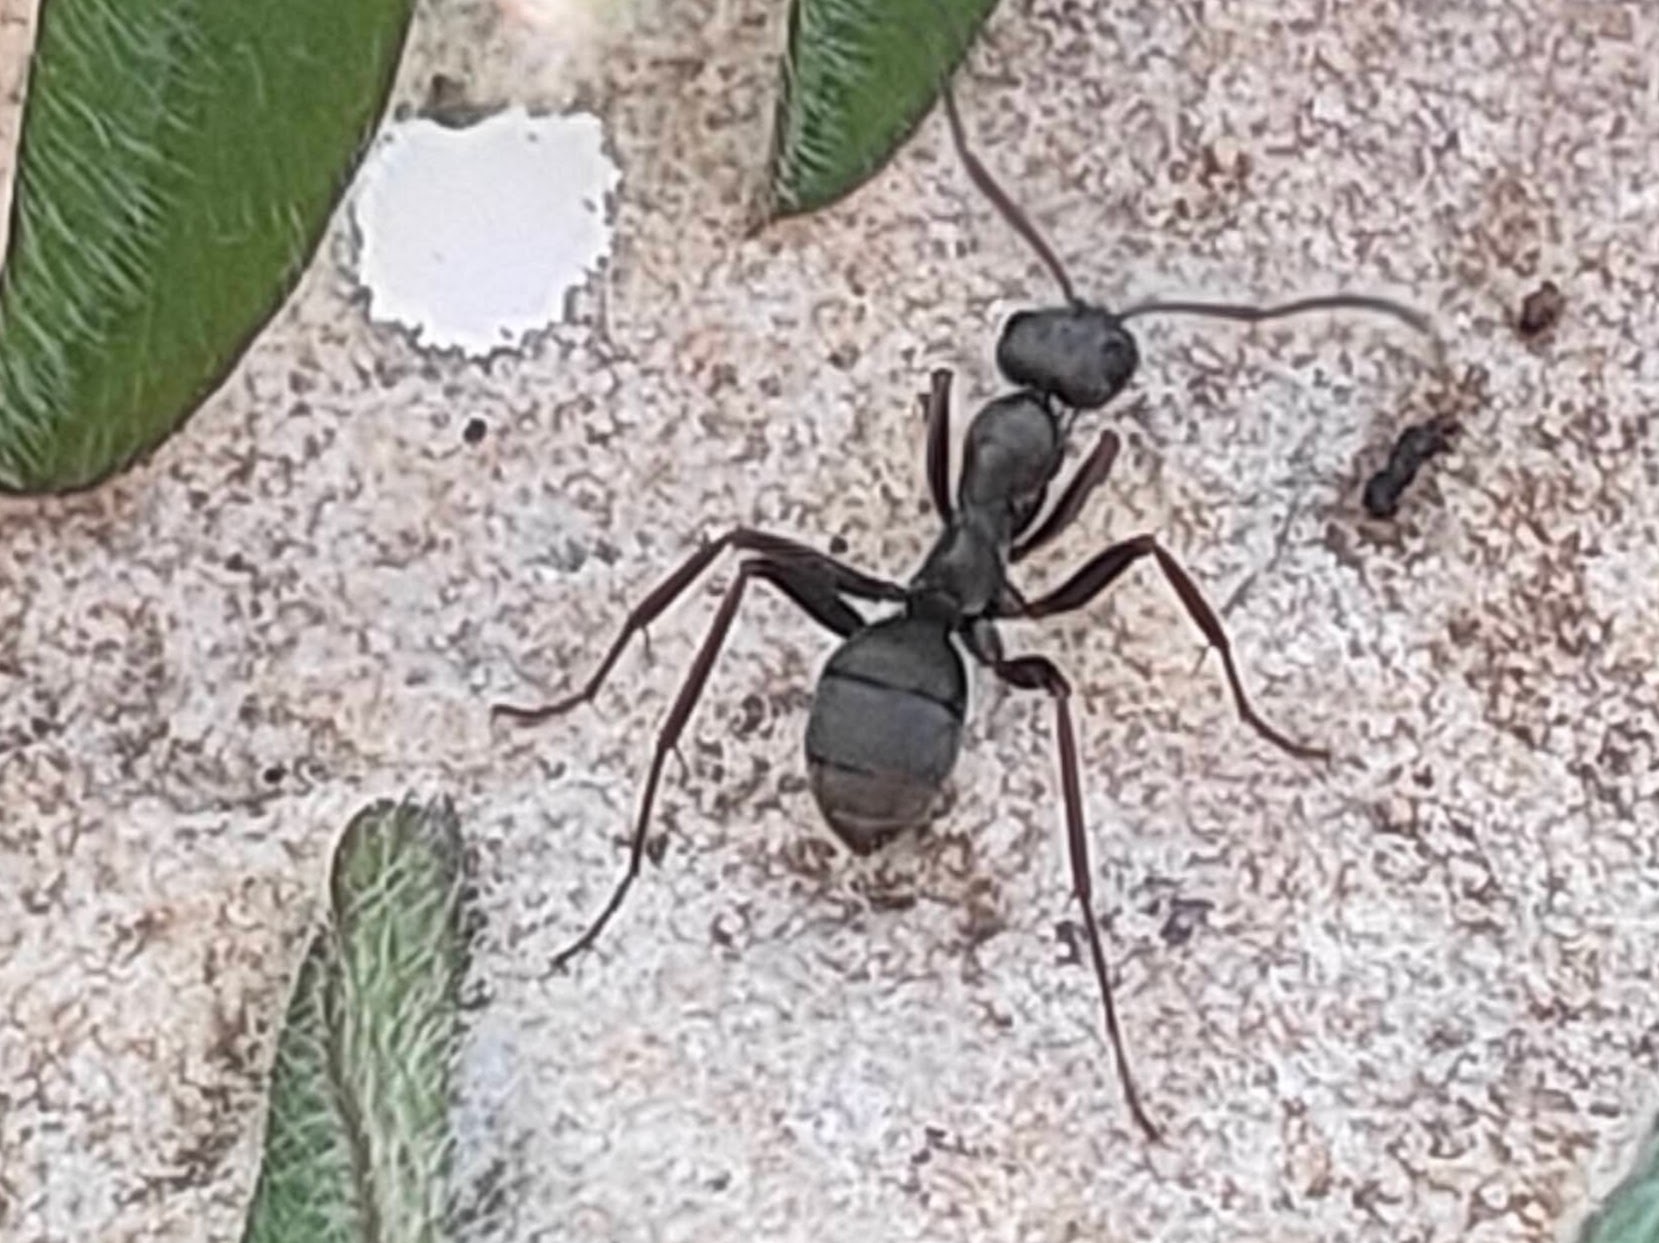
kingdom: Animalia
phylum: Arthropoda
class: Insecta
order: Hymenoptera
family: Formicidae
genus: Formica
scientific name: Formica japonica
